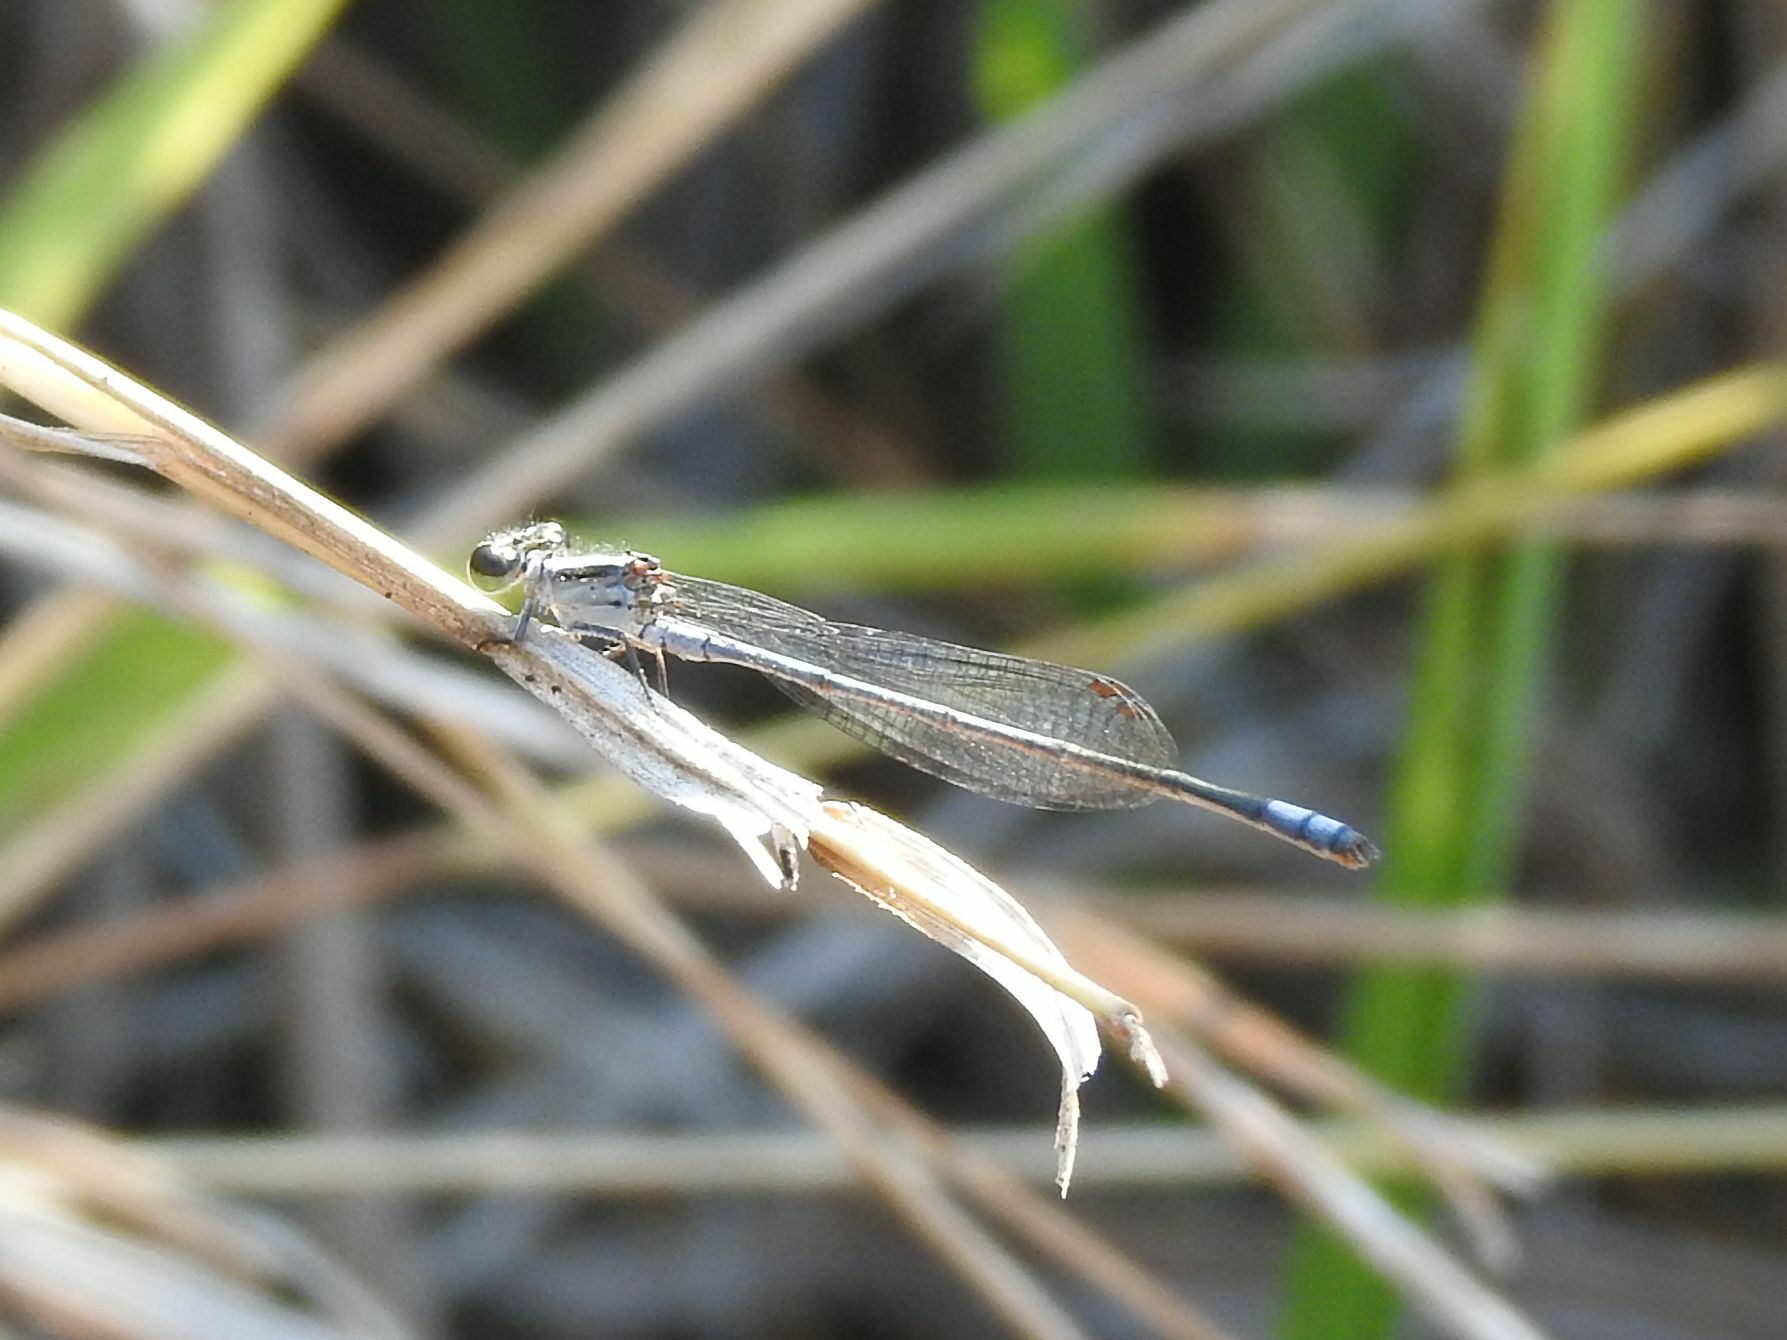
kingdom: Animalia
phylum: Arthropoda
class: Insecta
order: Odonata
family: Coenagrionidae
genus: Pseudagrion
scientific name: Pseudagrion kersteni
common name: Powder-faced sprite
